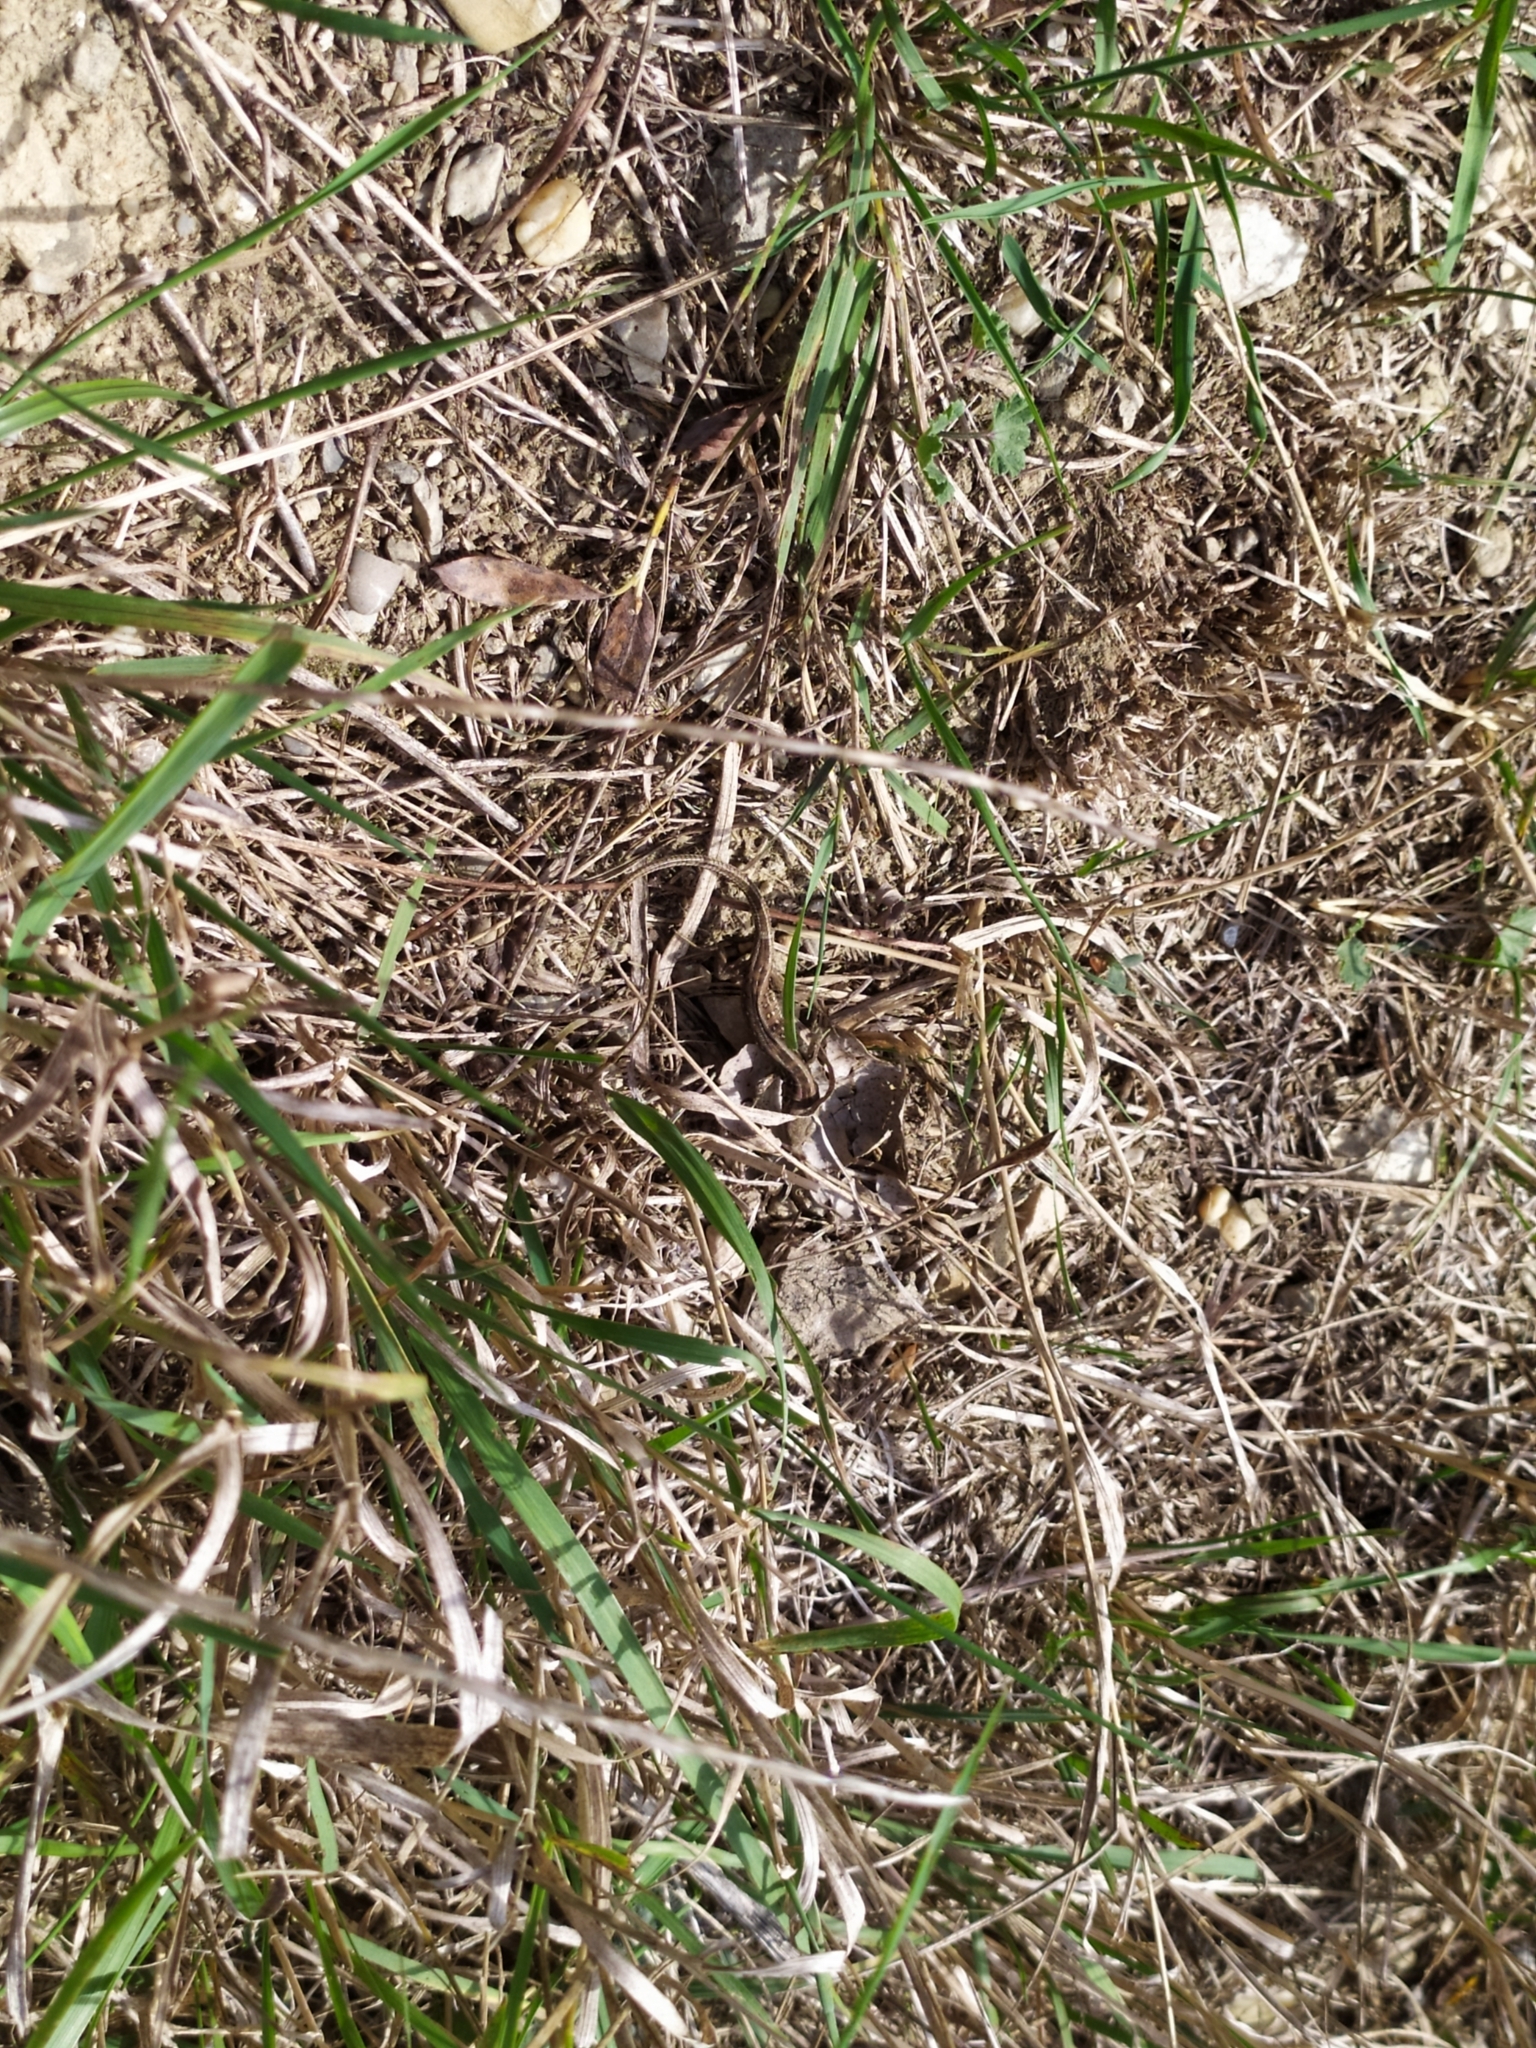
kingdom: Animalia
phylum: Chordata
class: Squamata
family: Lacertidae
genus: Lacerta
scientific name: Lacerta agilis
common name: Sand lizard
